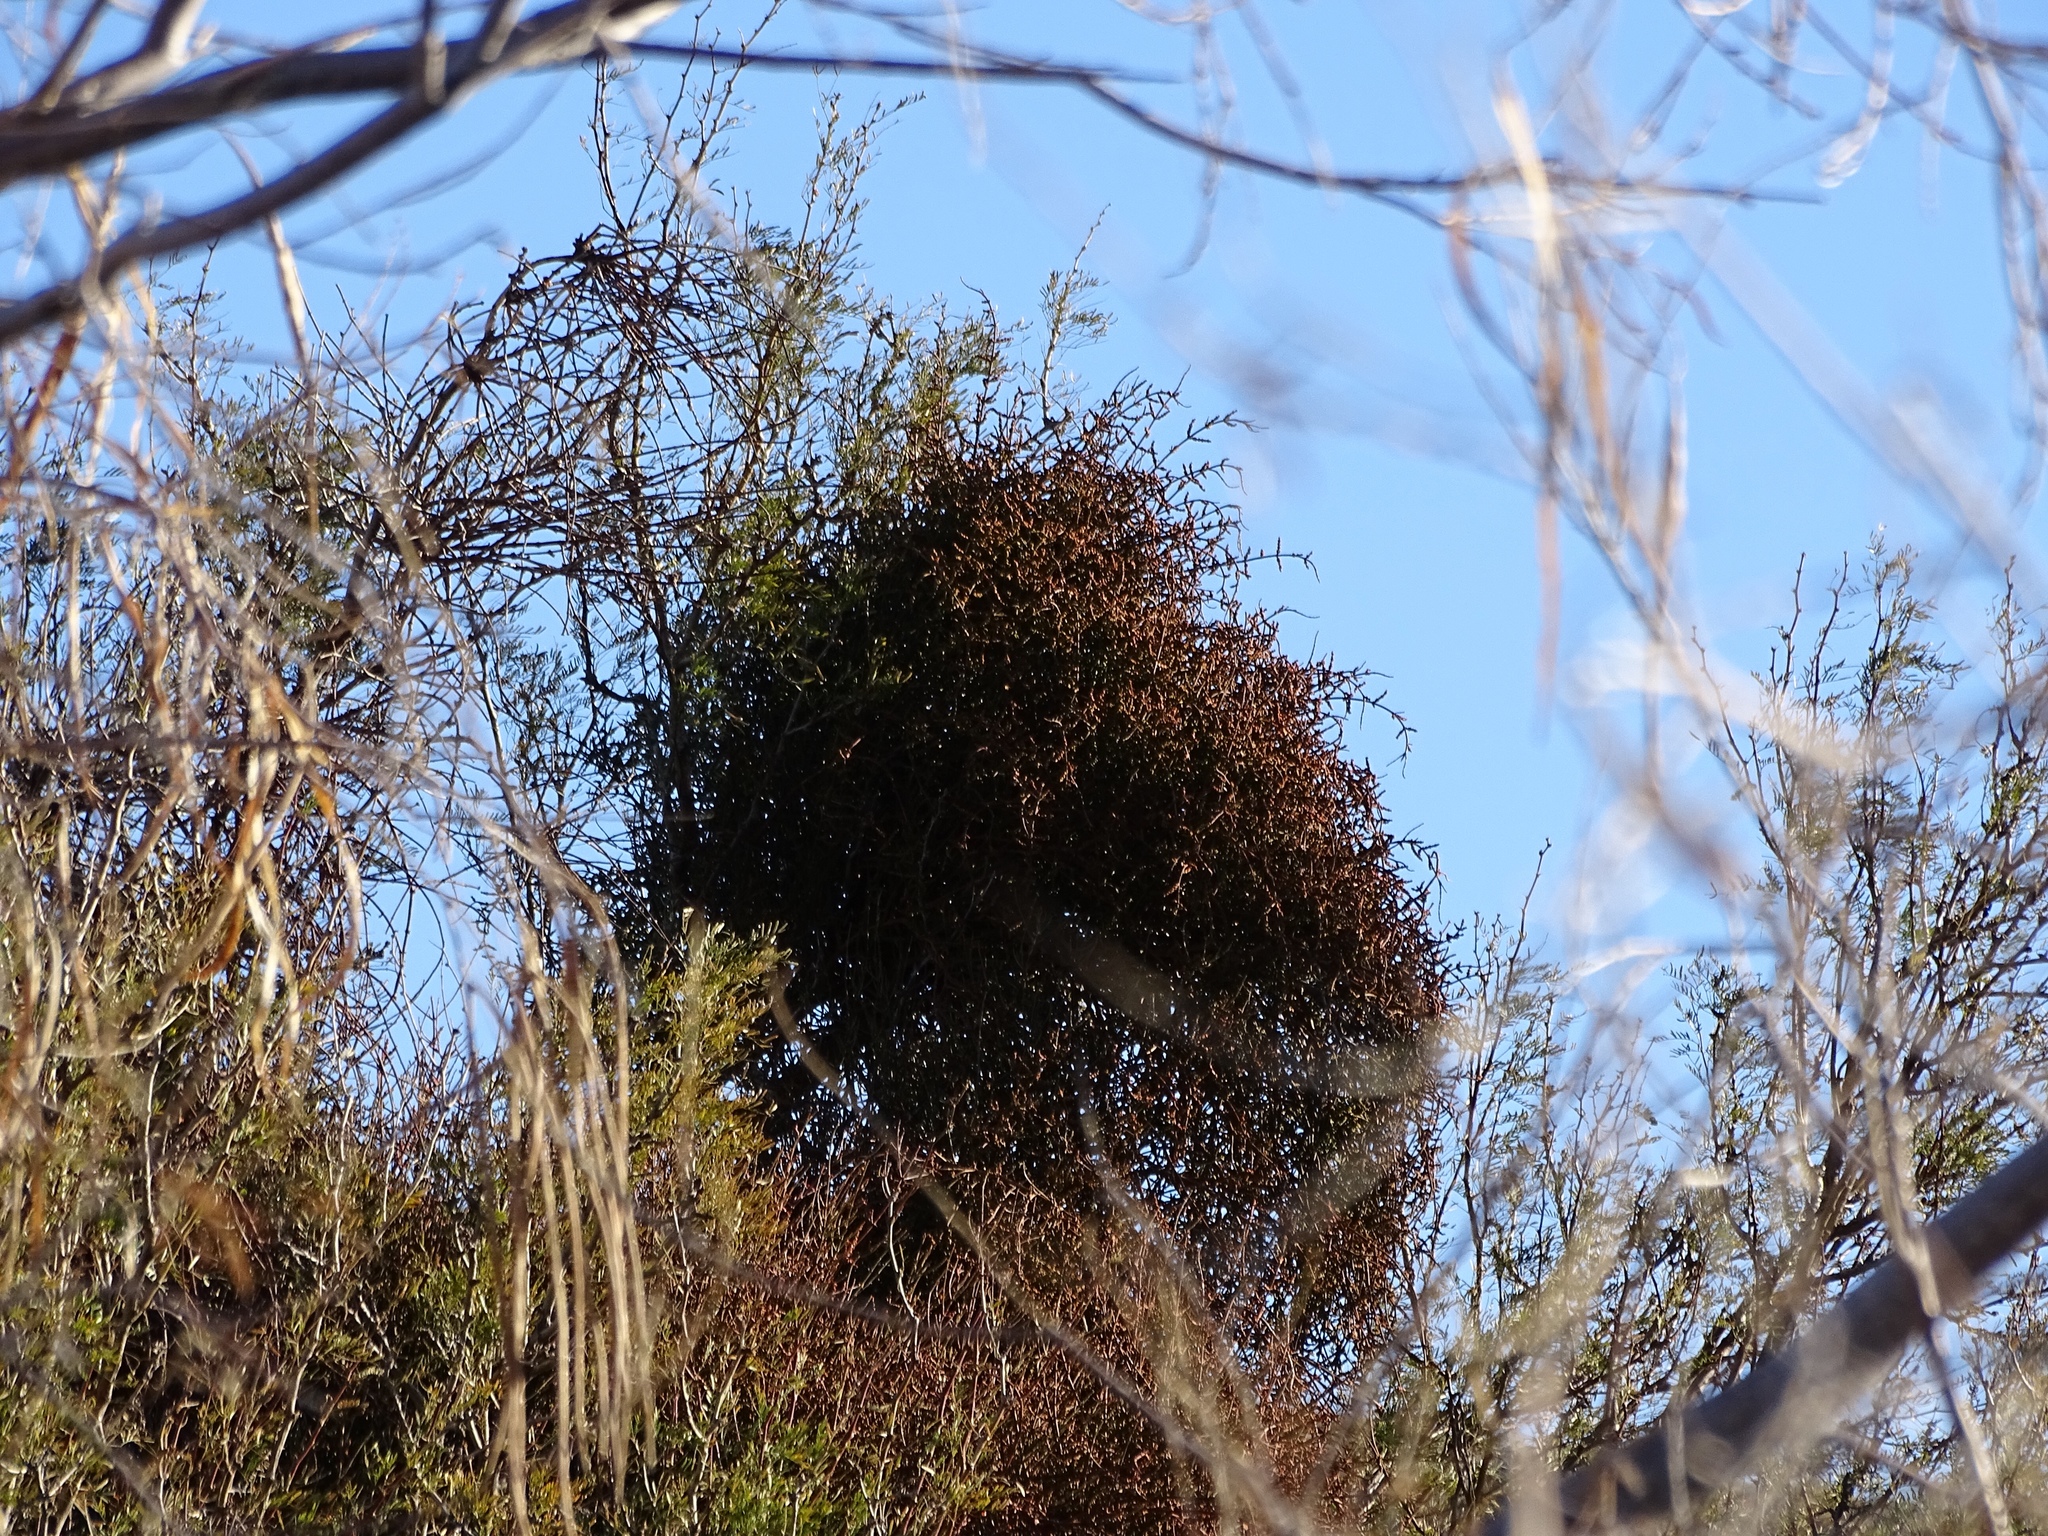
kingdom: Plantae
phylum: Tracheophyta
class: Magnoliopsida
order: Santalales
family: Viscaceae
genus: Phoradendron
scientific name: Phoradendron californicum
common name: Acacia mistletoe
